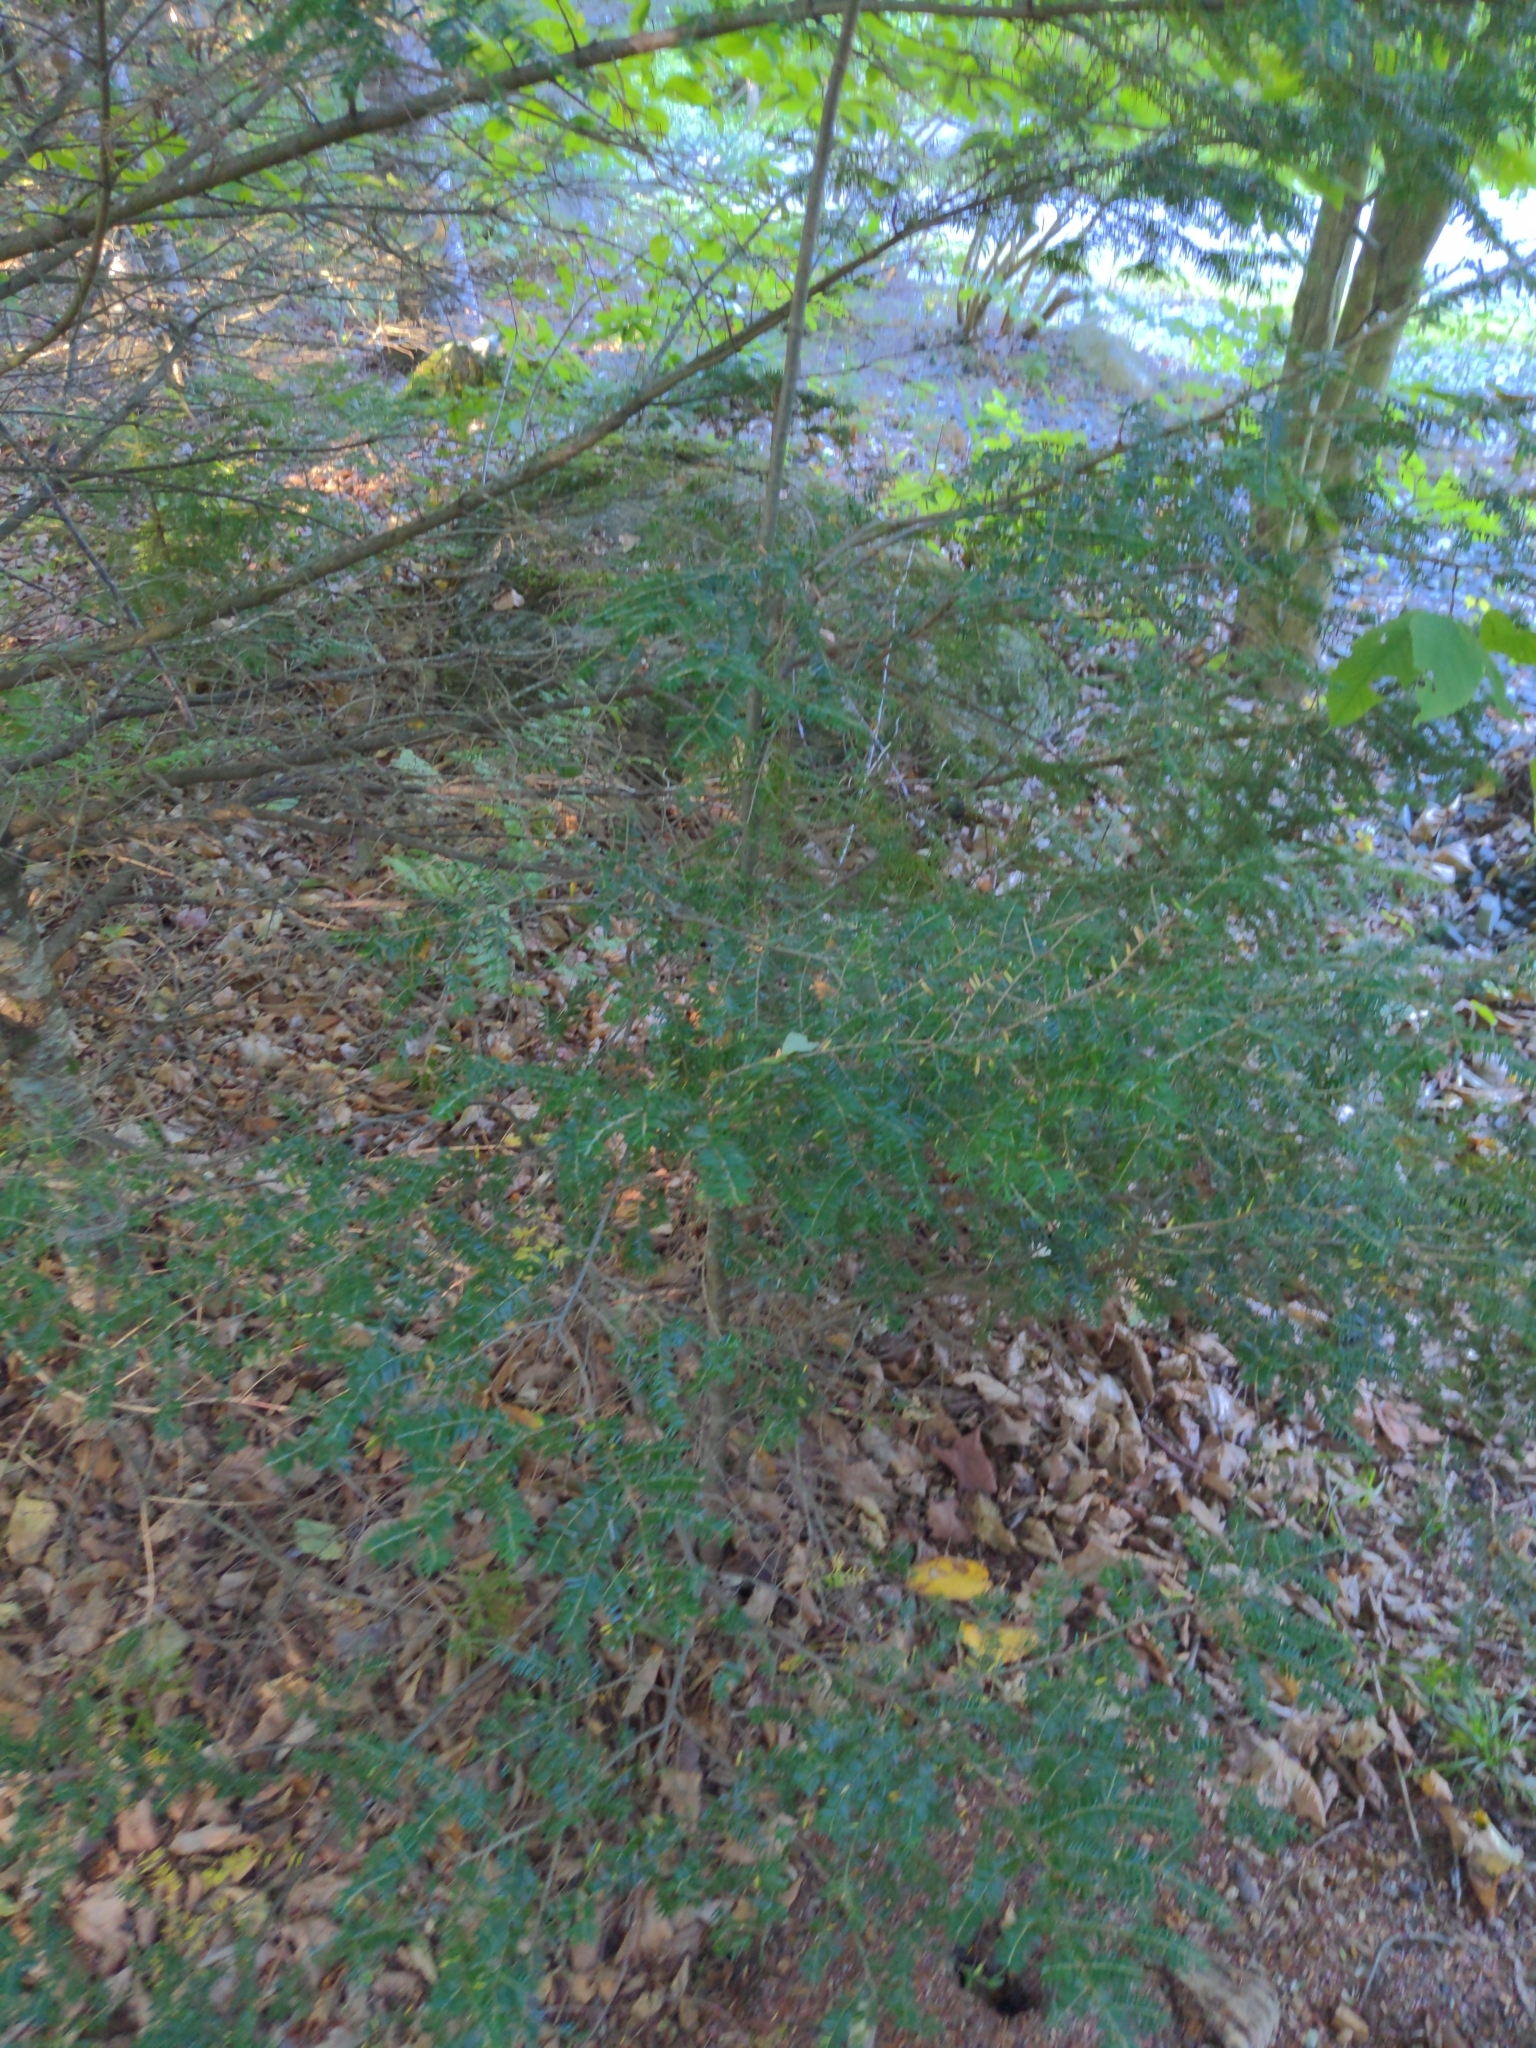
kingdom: Plantae
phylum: Tracheophyta
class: Pinopsida
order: Pinales
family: Pinaceae
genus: Tsuga
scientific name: Tsuga canadensis
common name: Eastern hemlock
